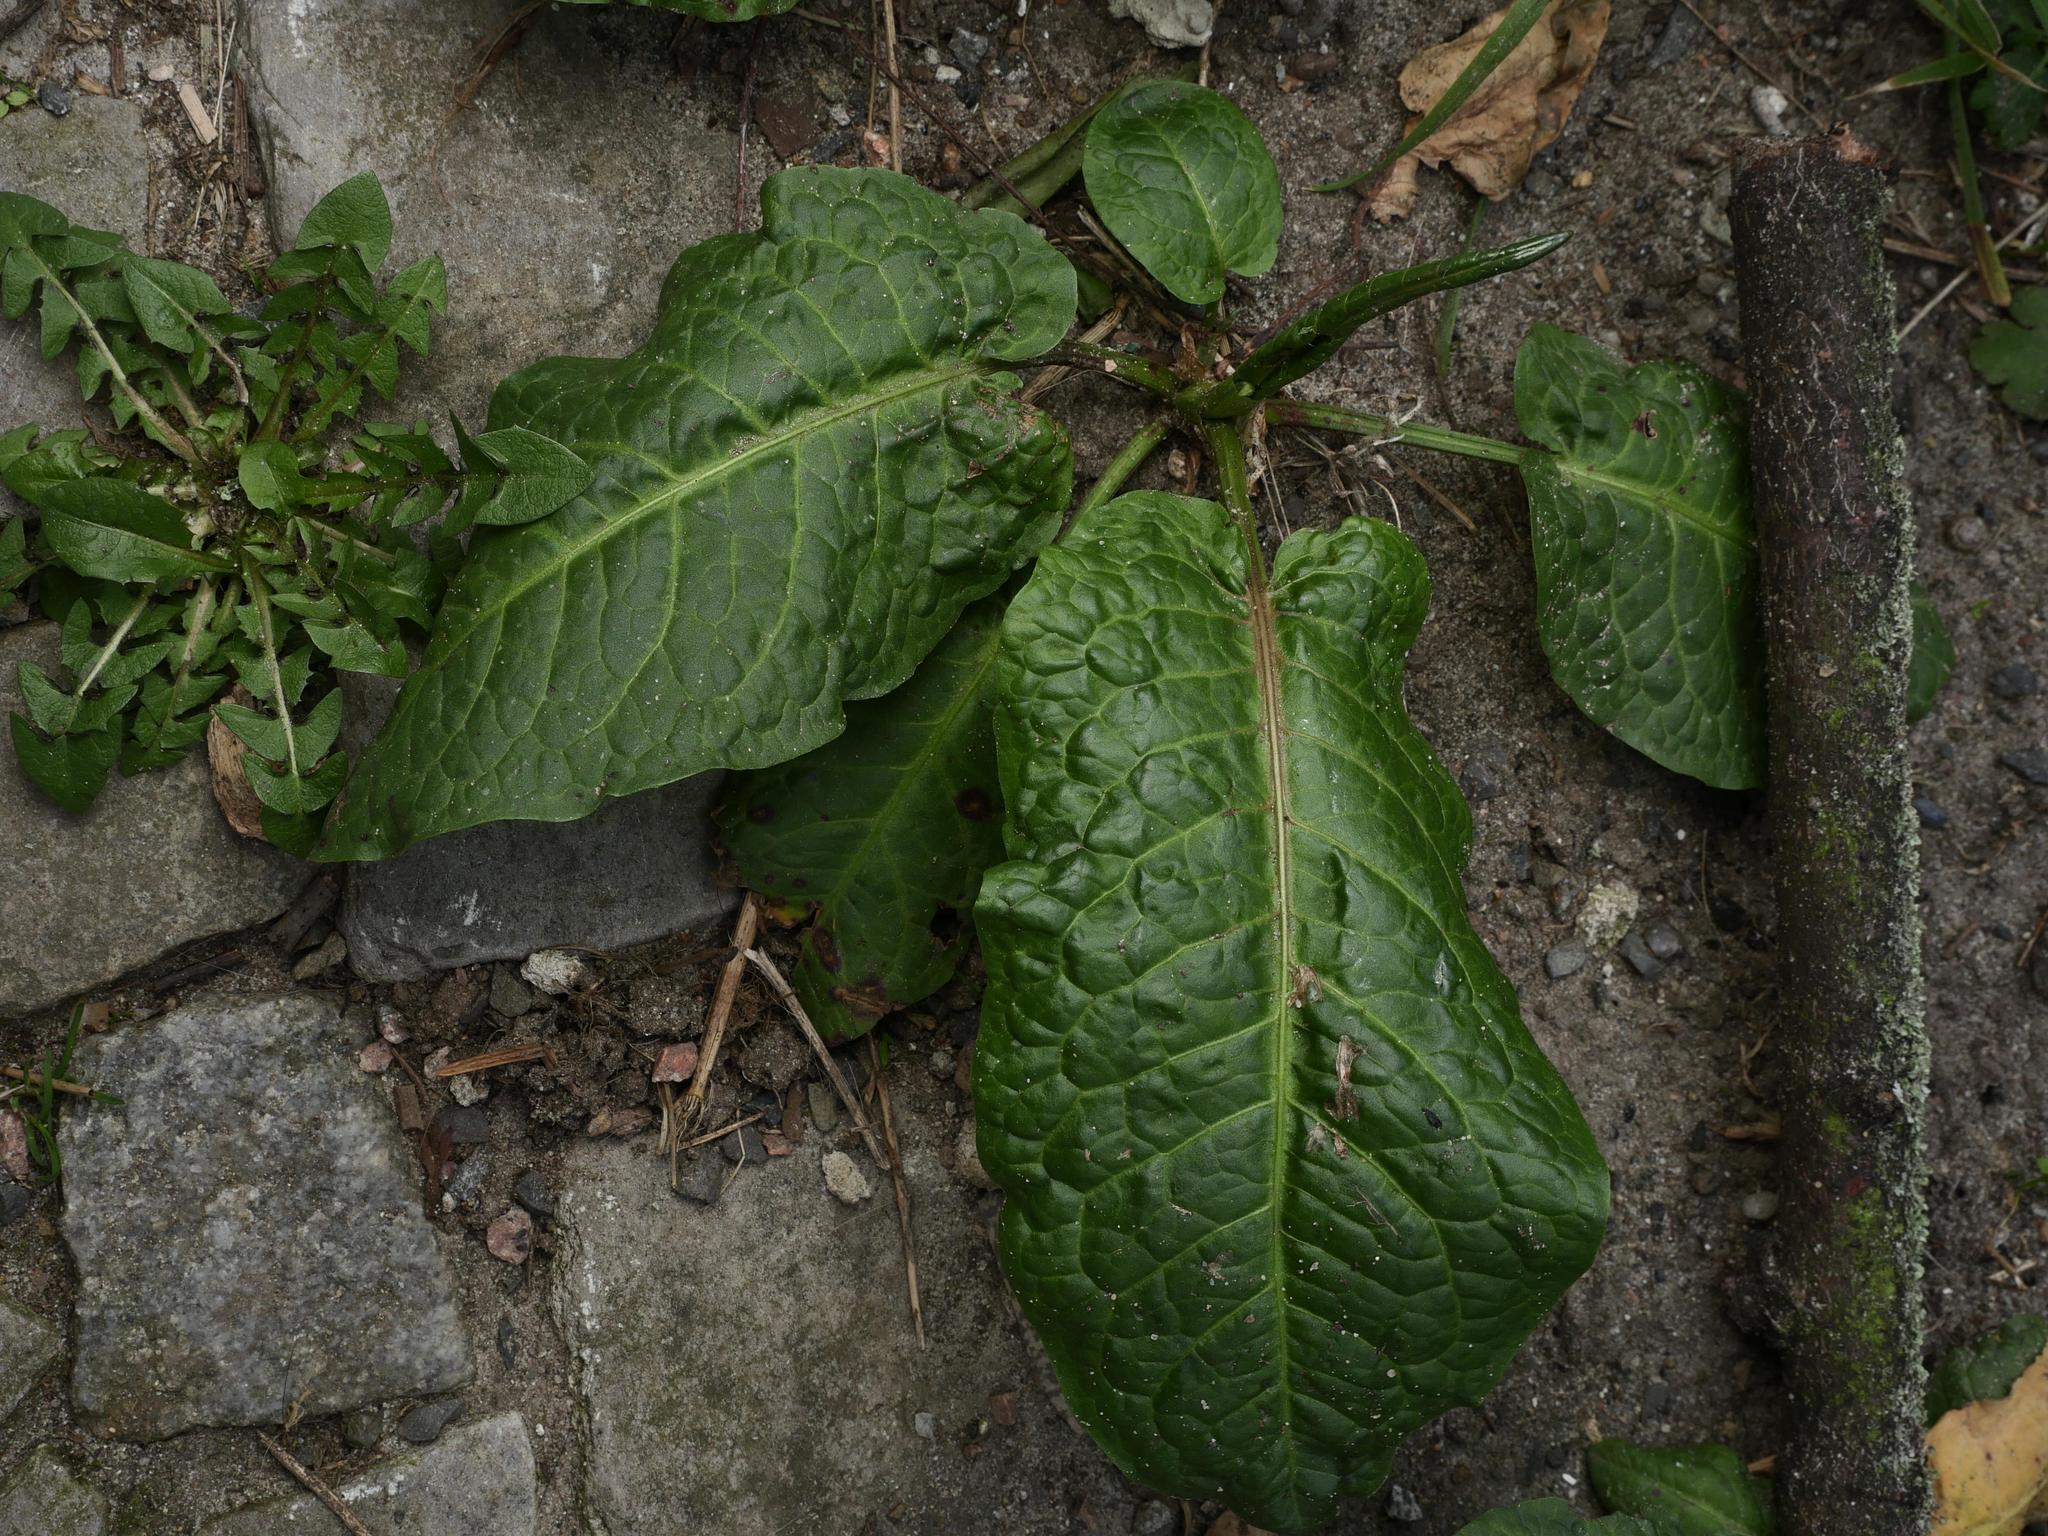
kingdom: Plantae
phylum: Tracheophyta
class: Magnoliopsida
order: Caryophyllales
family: Polygonaceae
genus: Rumex
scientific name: Rumex obtusifolius
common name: Bitter dock
